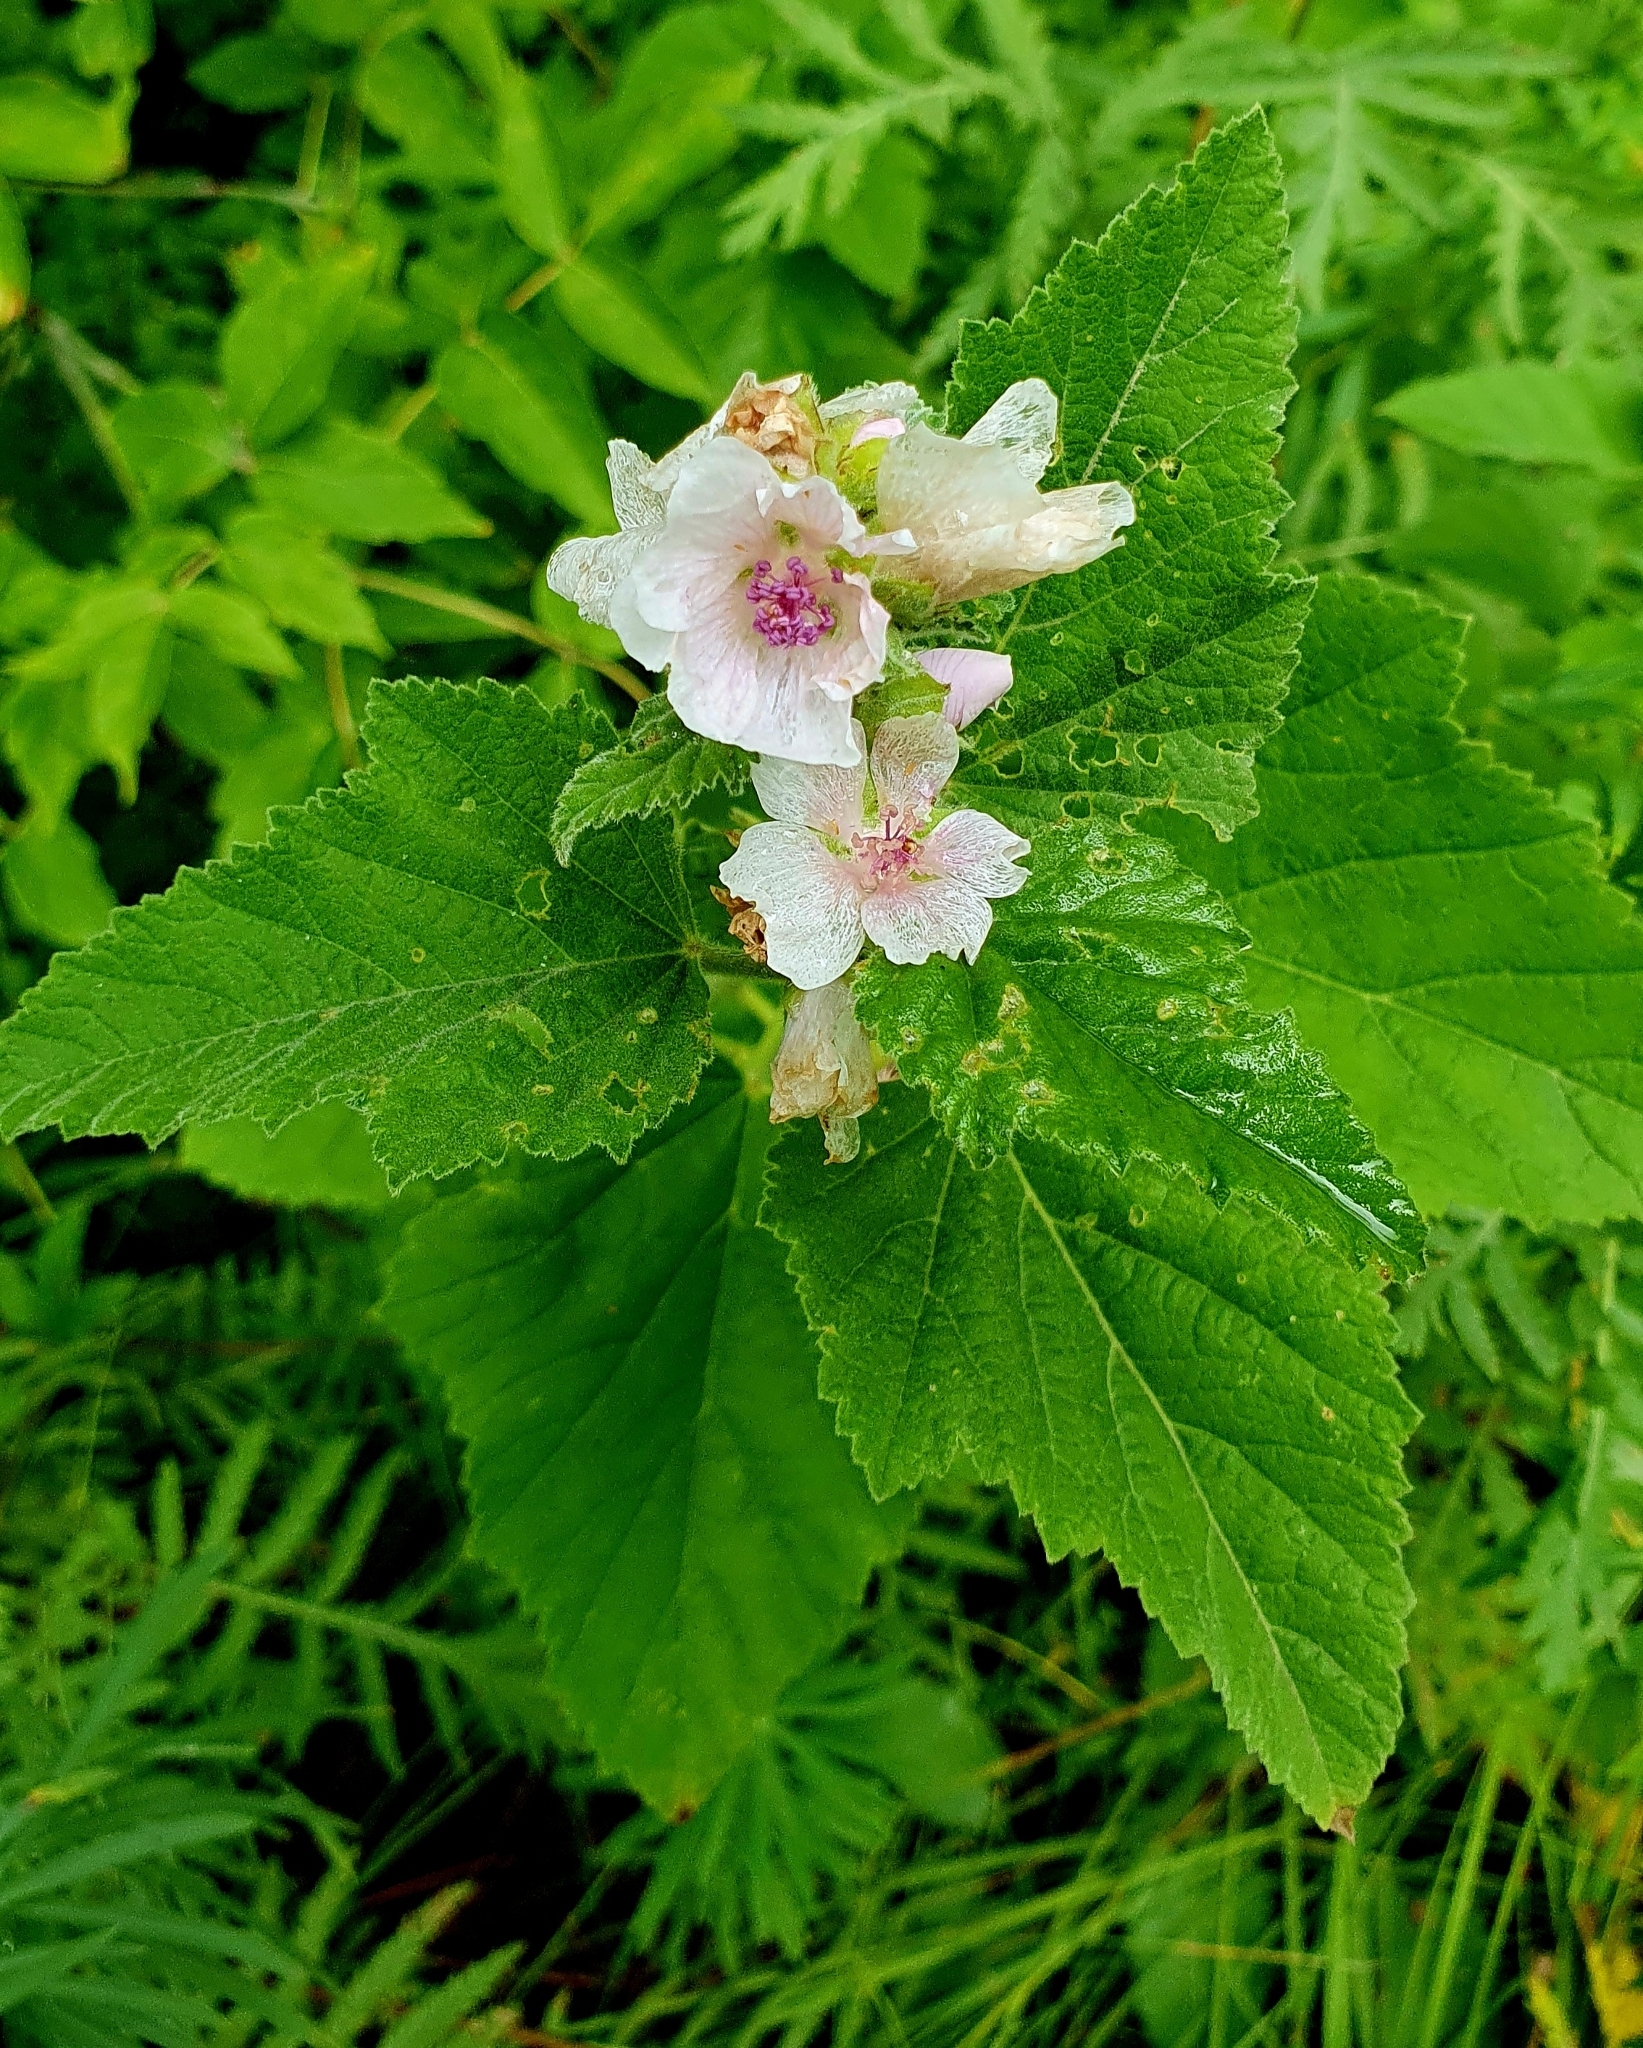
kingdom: Plantae
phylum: Tracheophyta
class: Magnoliopsida
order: Malvales
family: Malvaceae
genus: Althaea
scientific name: Althaea officinalis
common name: Marsh-mallow
